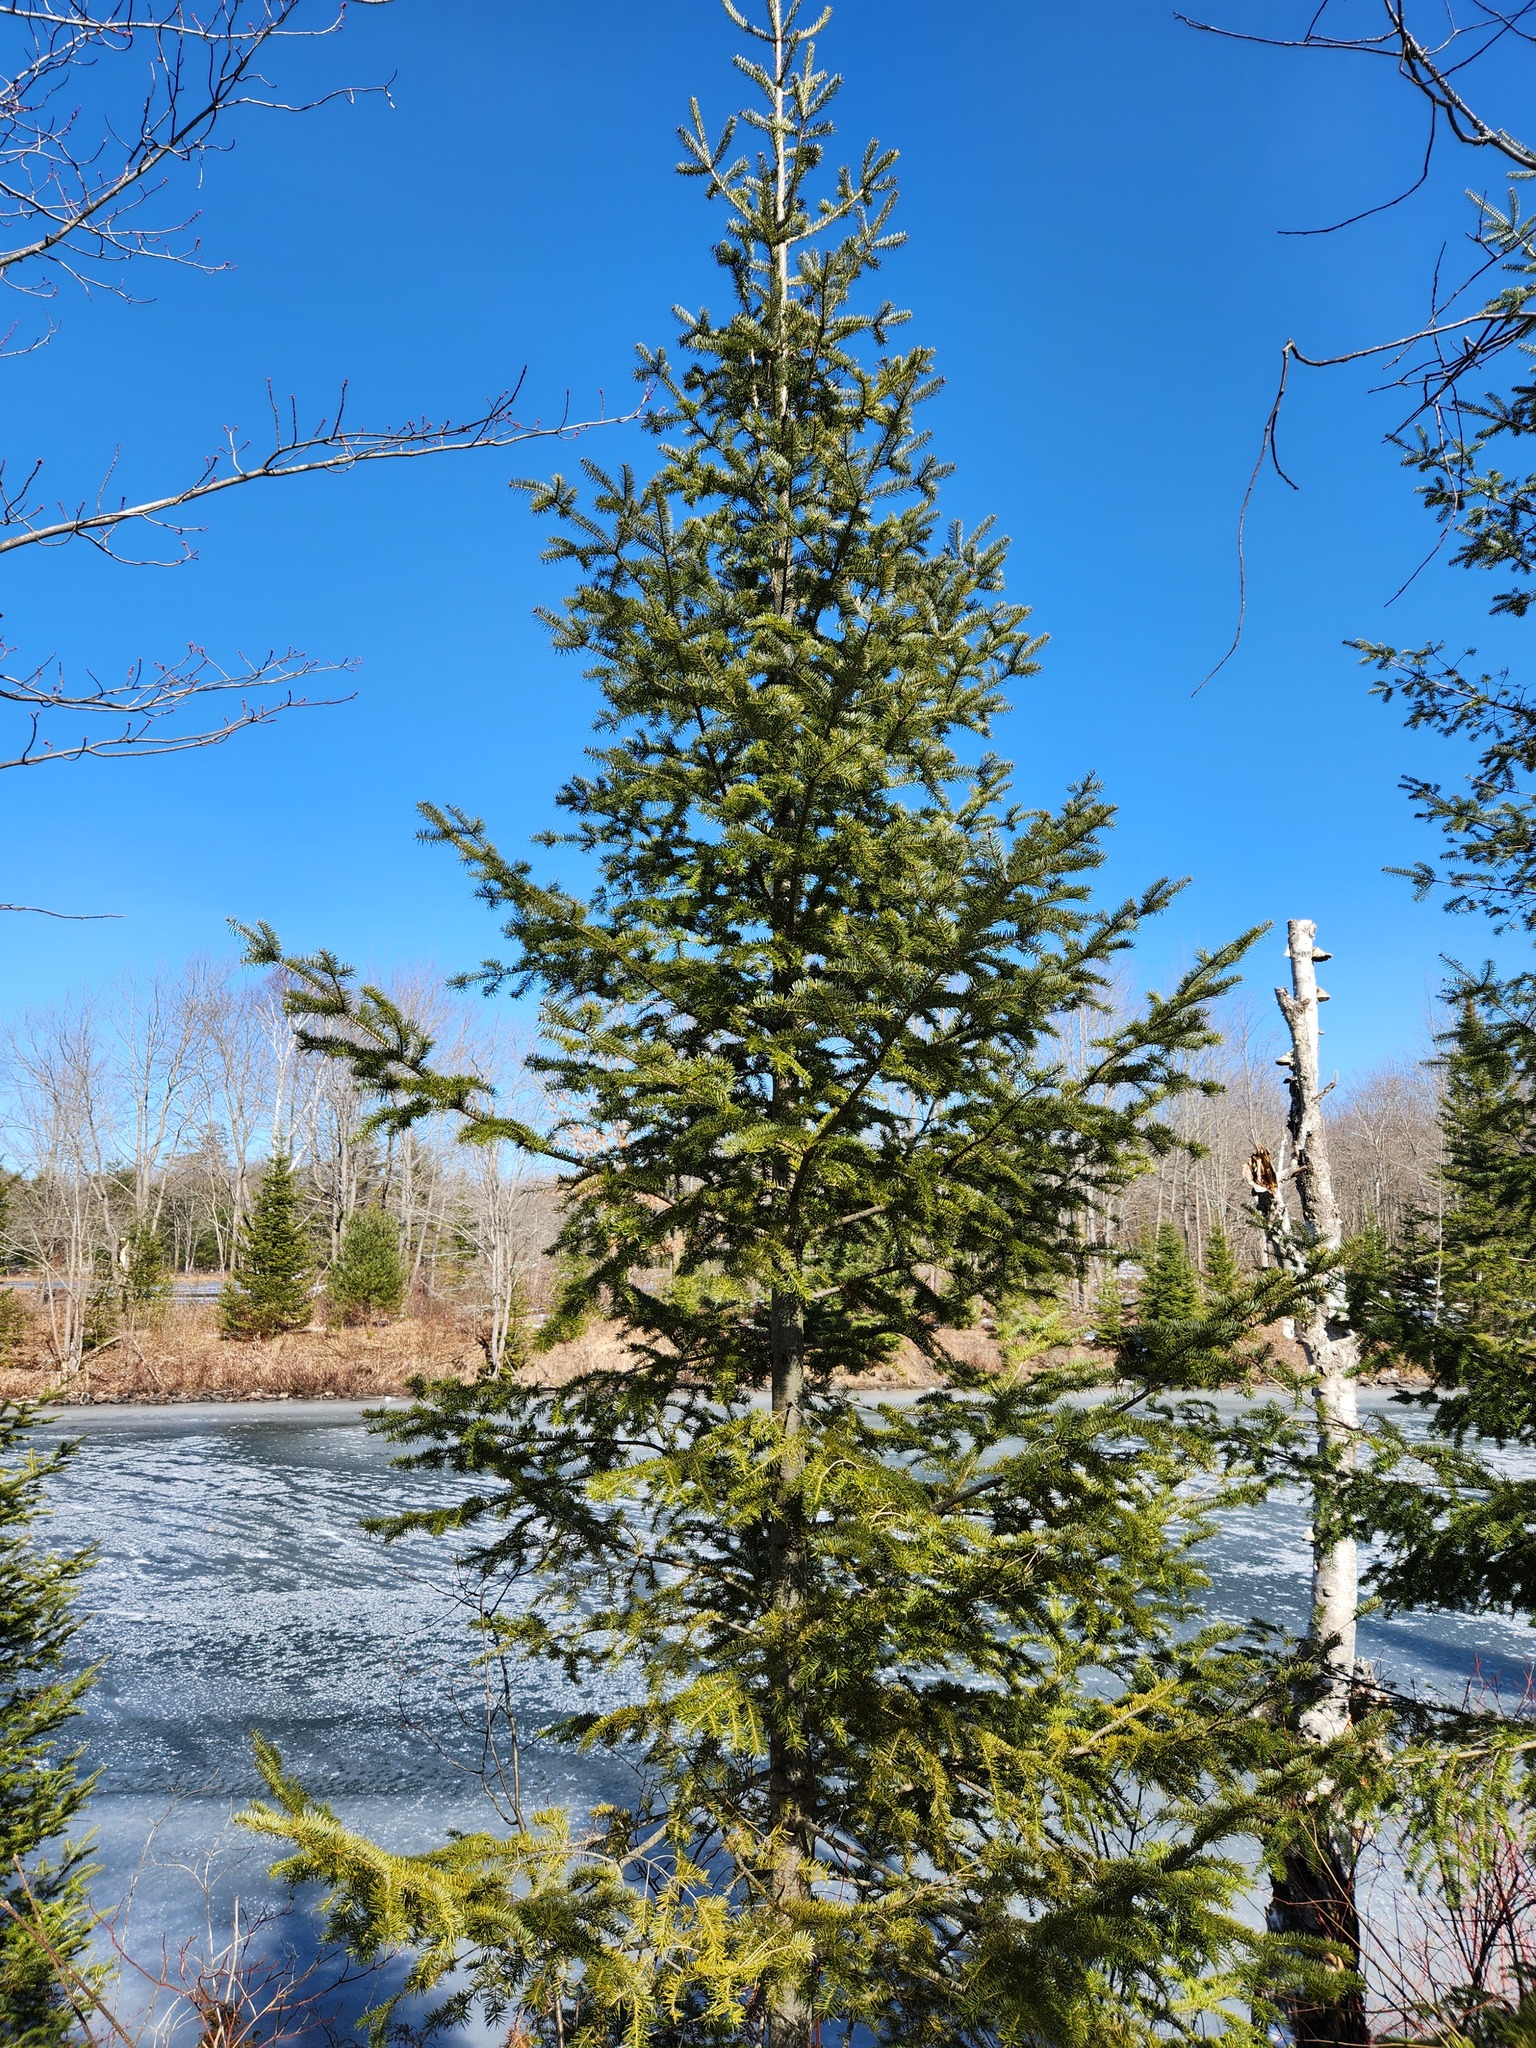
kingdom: Plantae
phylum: Tracheophyta
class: Pinopsida
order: Pinales
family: Pinaceae
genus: Abies
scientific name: Abies balsamea
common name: Balsam fir
